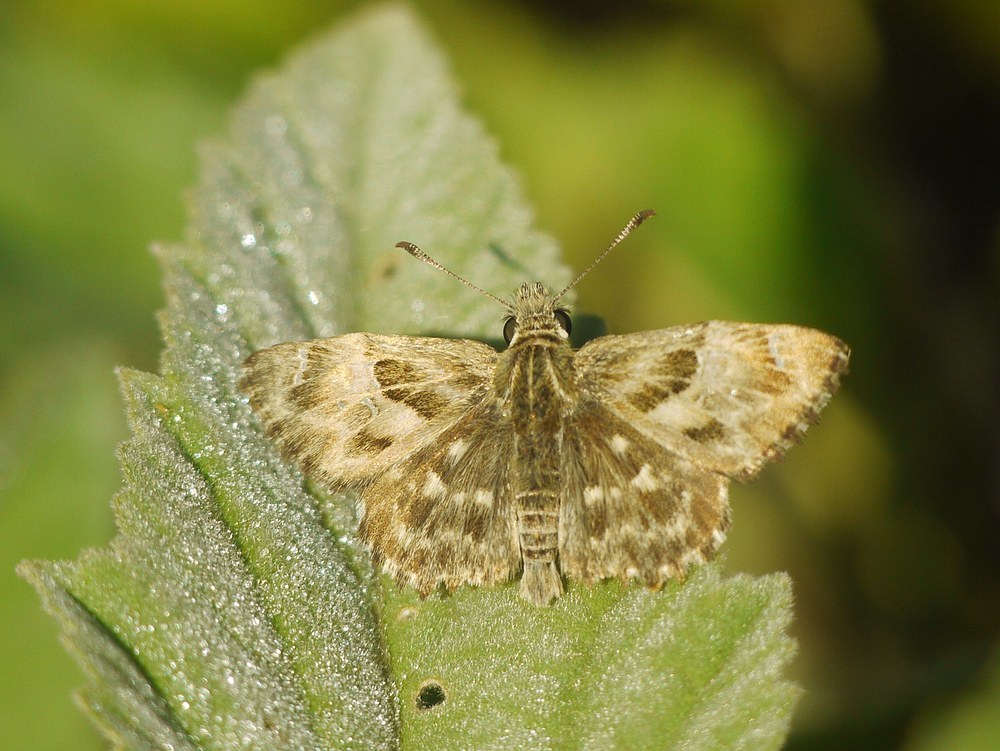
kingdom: Animalia
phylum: Arthropoda
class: Insecta
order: Lepidoptera
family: Hesperiidae
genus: Carcharodus
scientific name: Carcharodus alceae
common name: Mallow skipper
